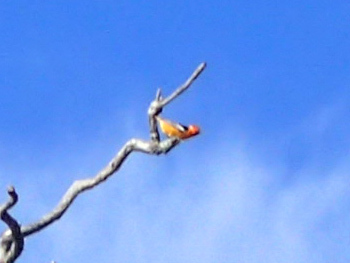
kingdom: Animalia
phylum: Chordata
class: Aves
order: Passeriformes
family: Icteridae
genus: Icterus
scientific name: Icterus bullockii
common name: Bullock's oriole
